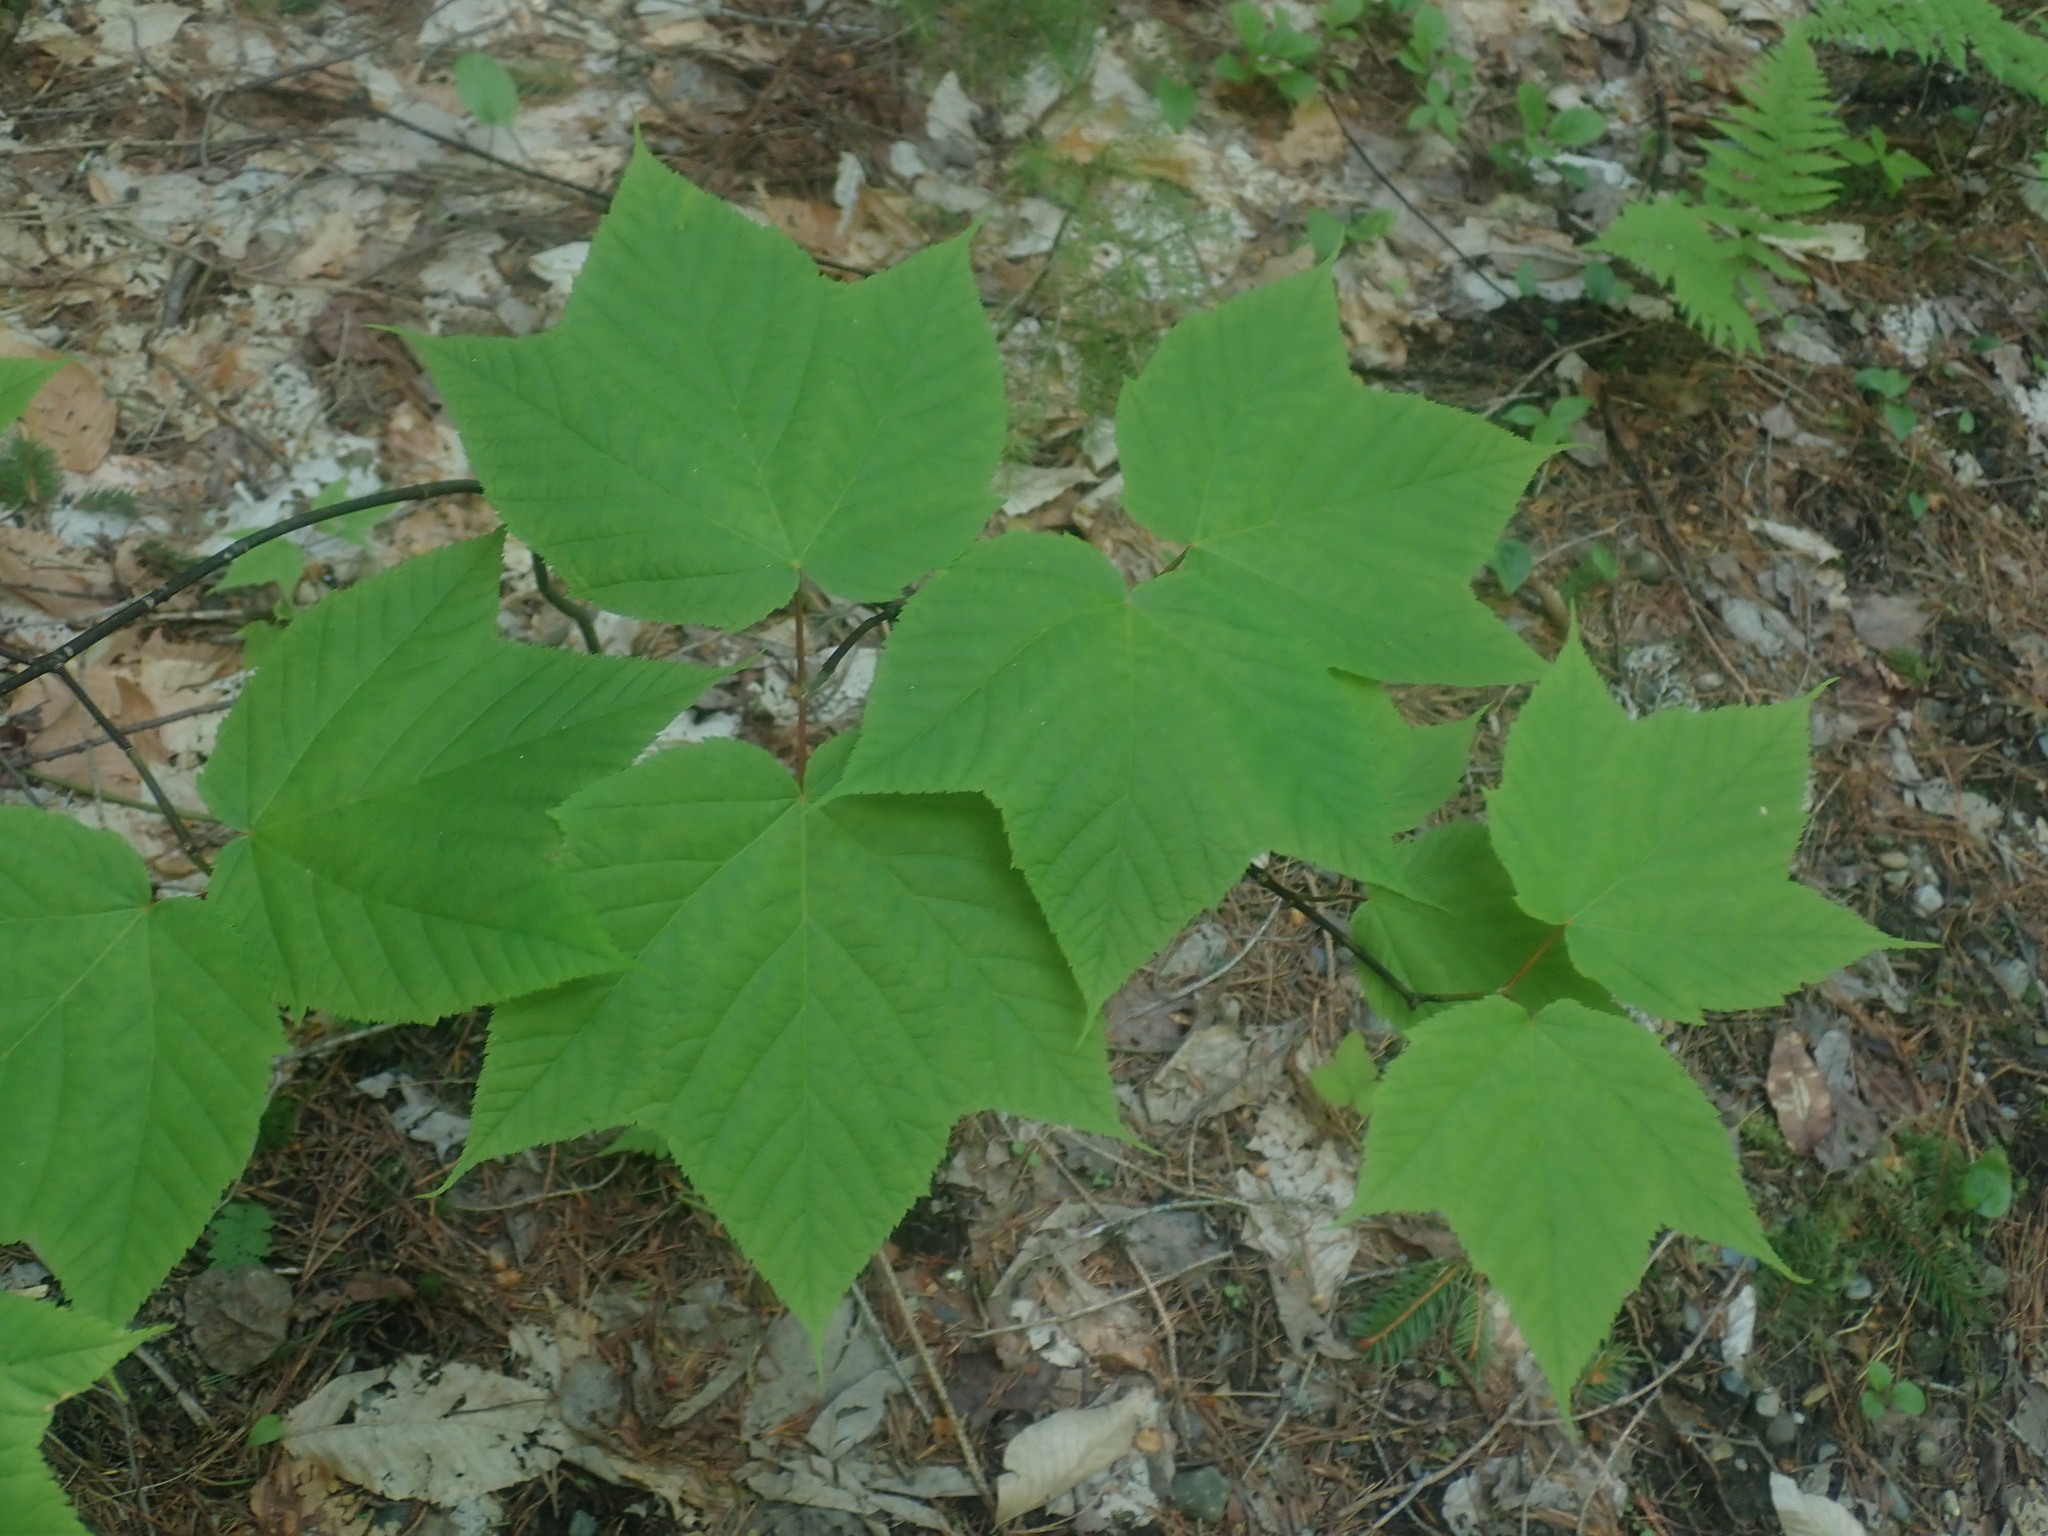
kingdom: Plantae
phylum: Tracheophyta
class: Magnoliopsida
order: Sapindales
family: Sapindaceae
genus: Acer
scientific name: Acer pensylvanicum
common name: Moosewood
